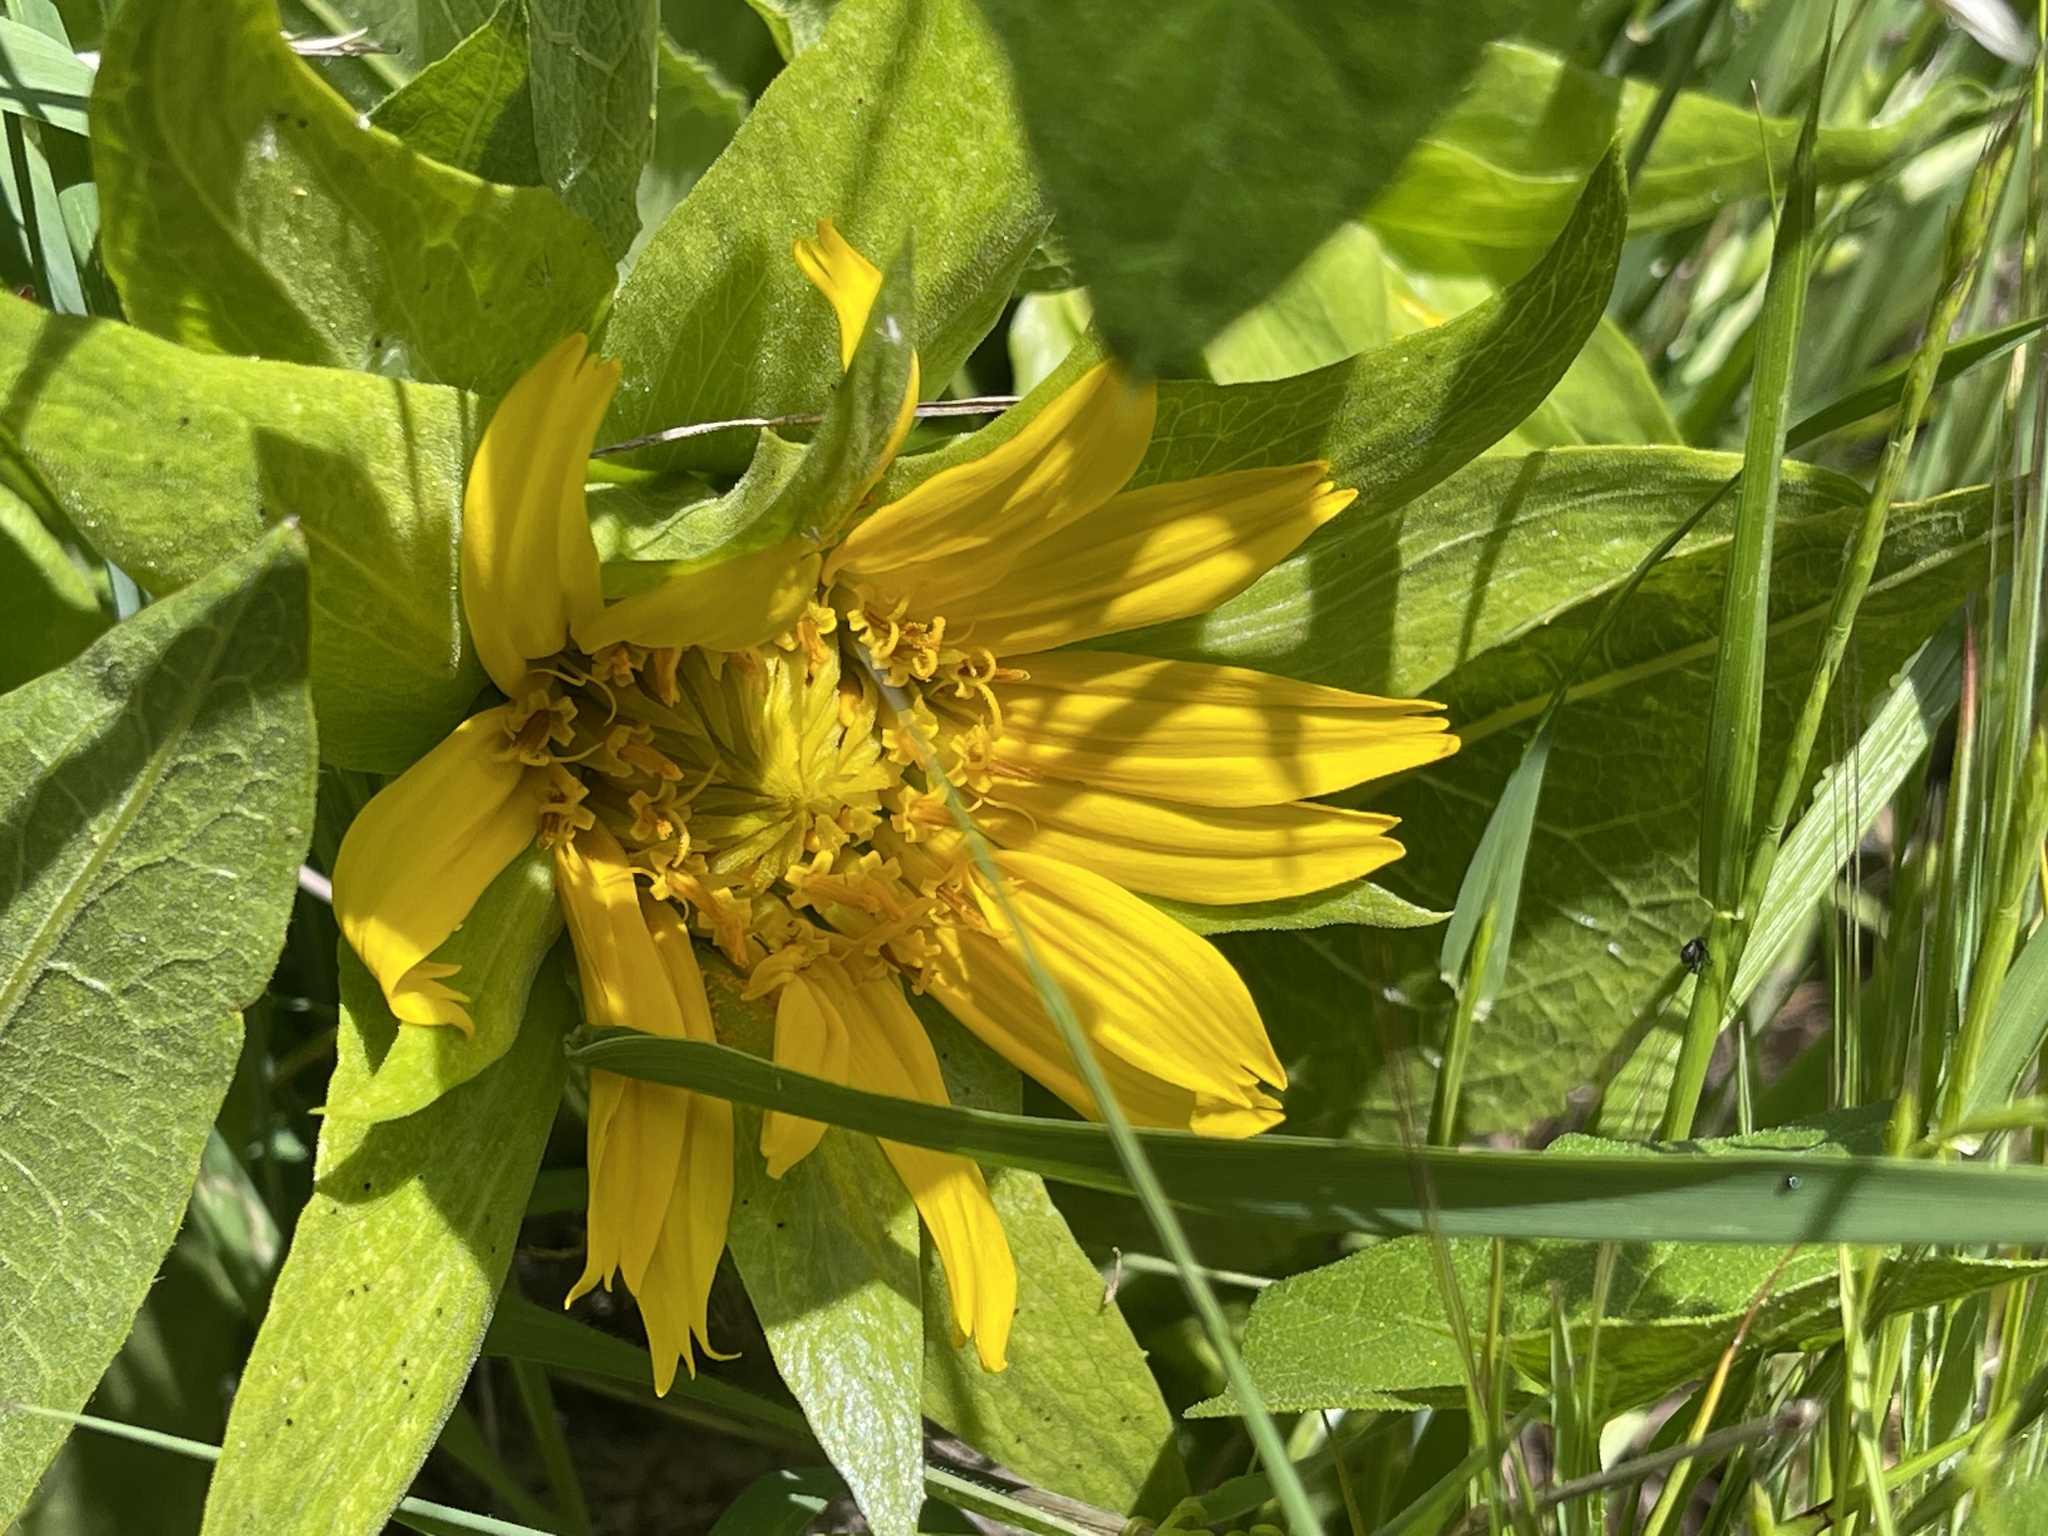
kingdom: Plantae
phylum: Tracheophyta
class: Magnoliopsida
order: Asterales
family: Asteraceae
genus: Wyethia
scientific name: Wyethia glabra
